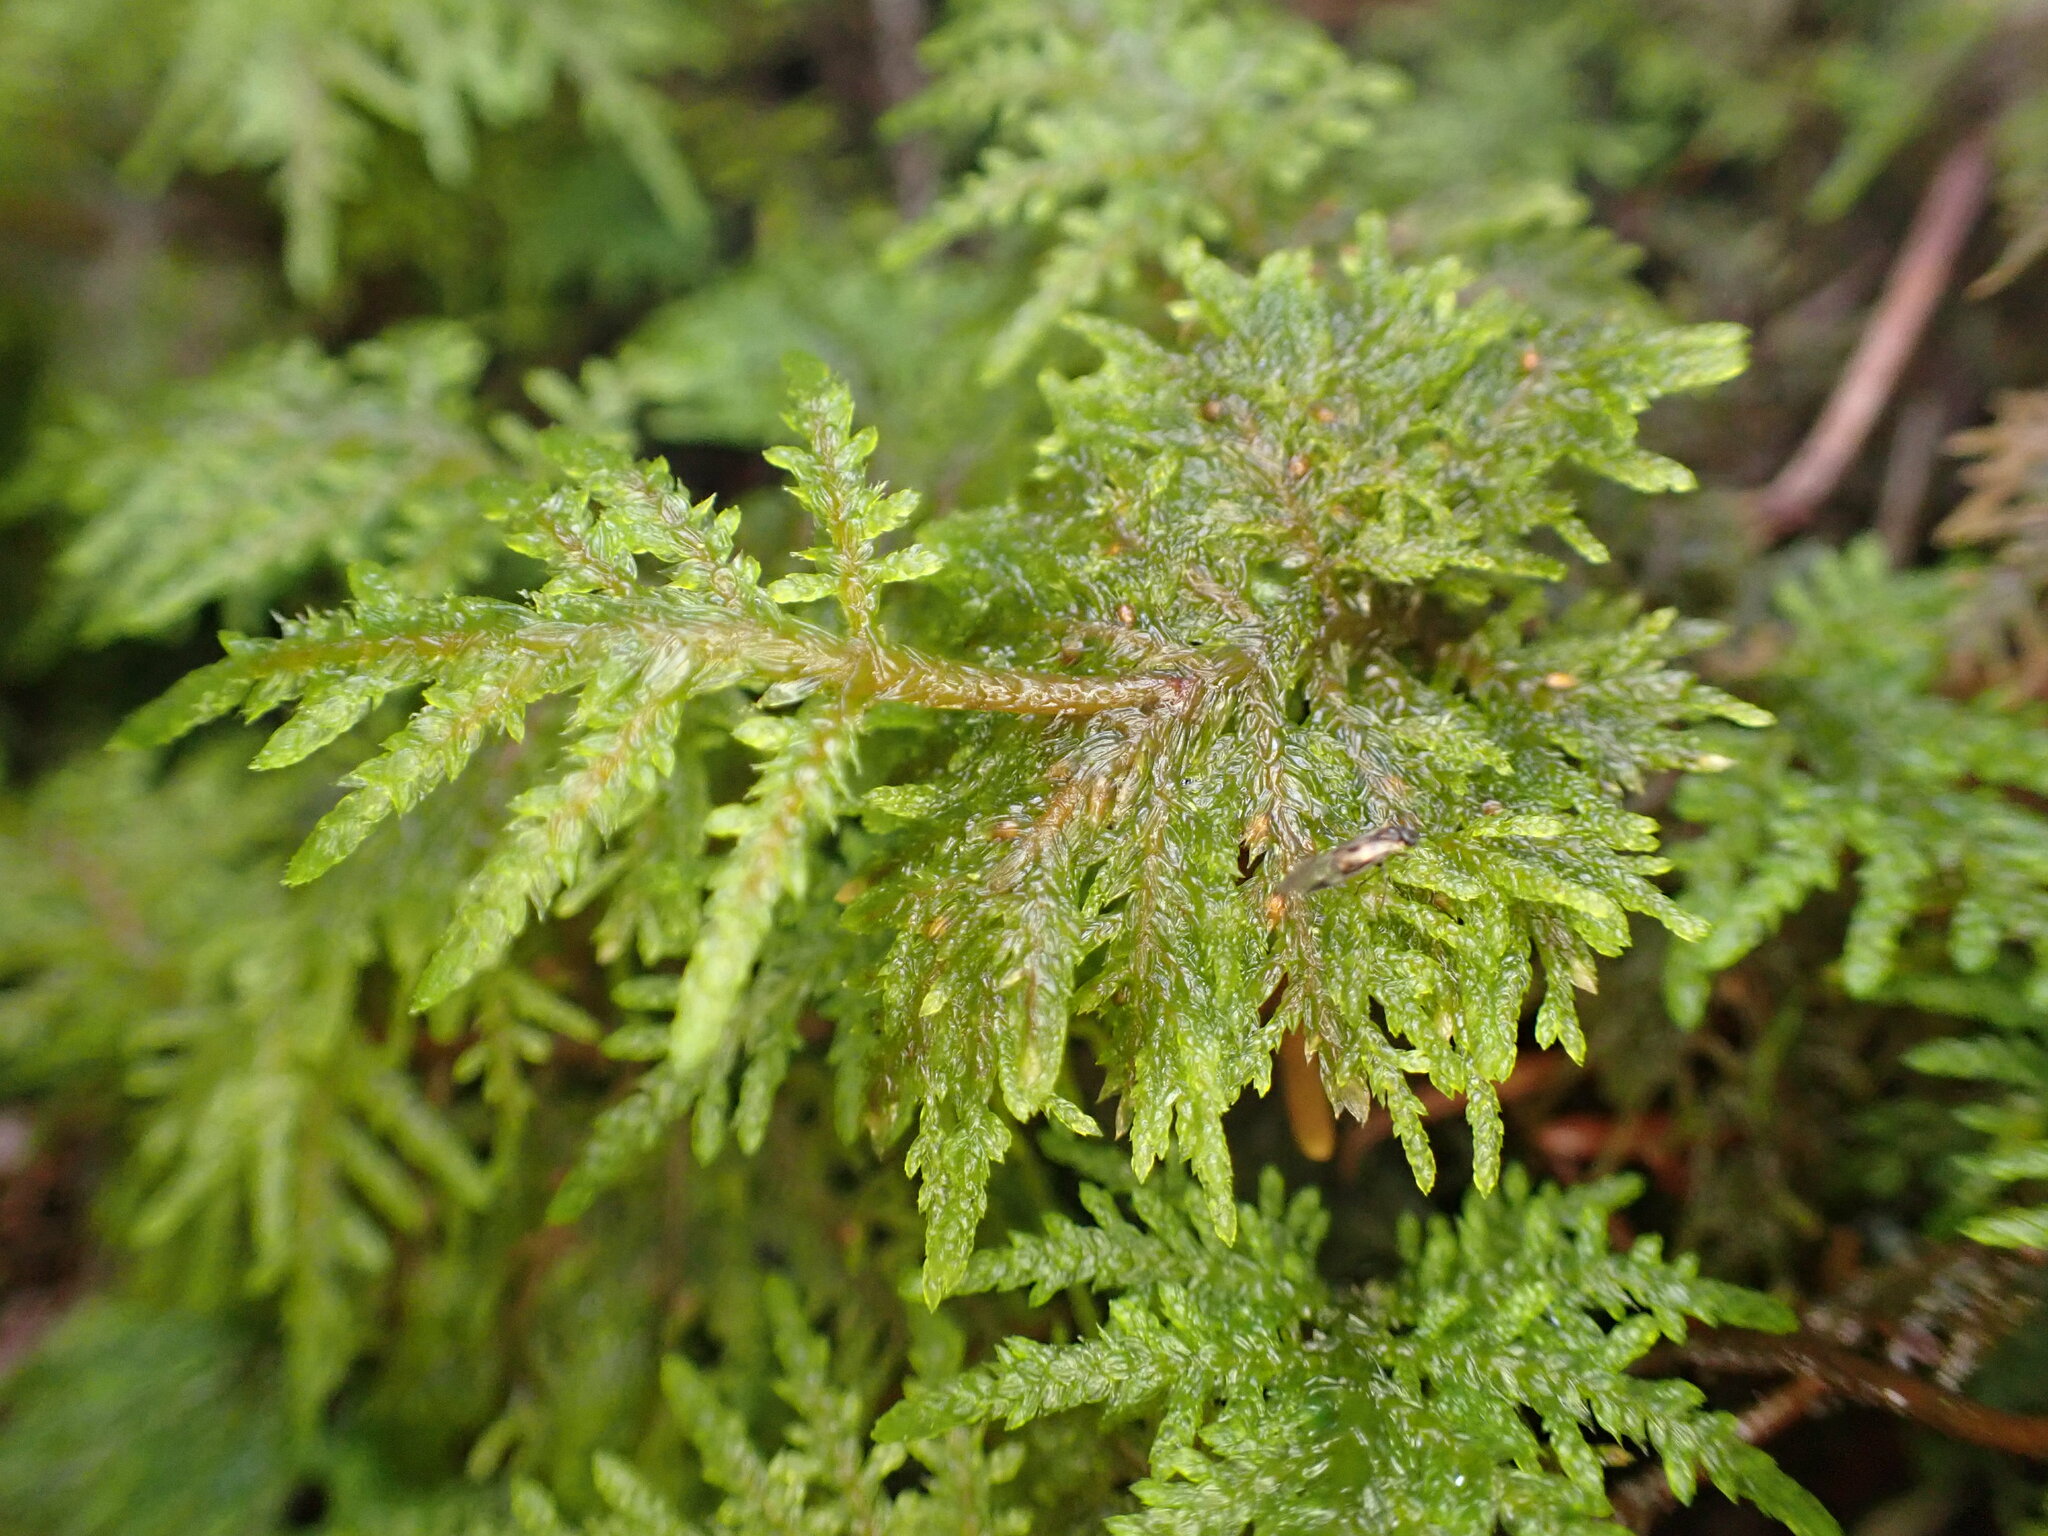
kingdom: Plantae
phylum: Bryophyta
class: Bryopsida
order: Hypnales
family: Hylocomiaceae
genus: Hylocomium
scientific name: Hylocomium splendens
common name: Stairstep moss
